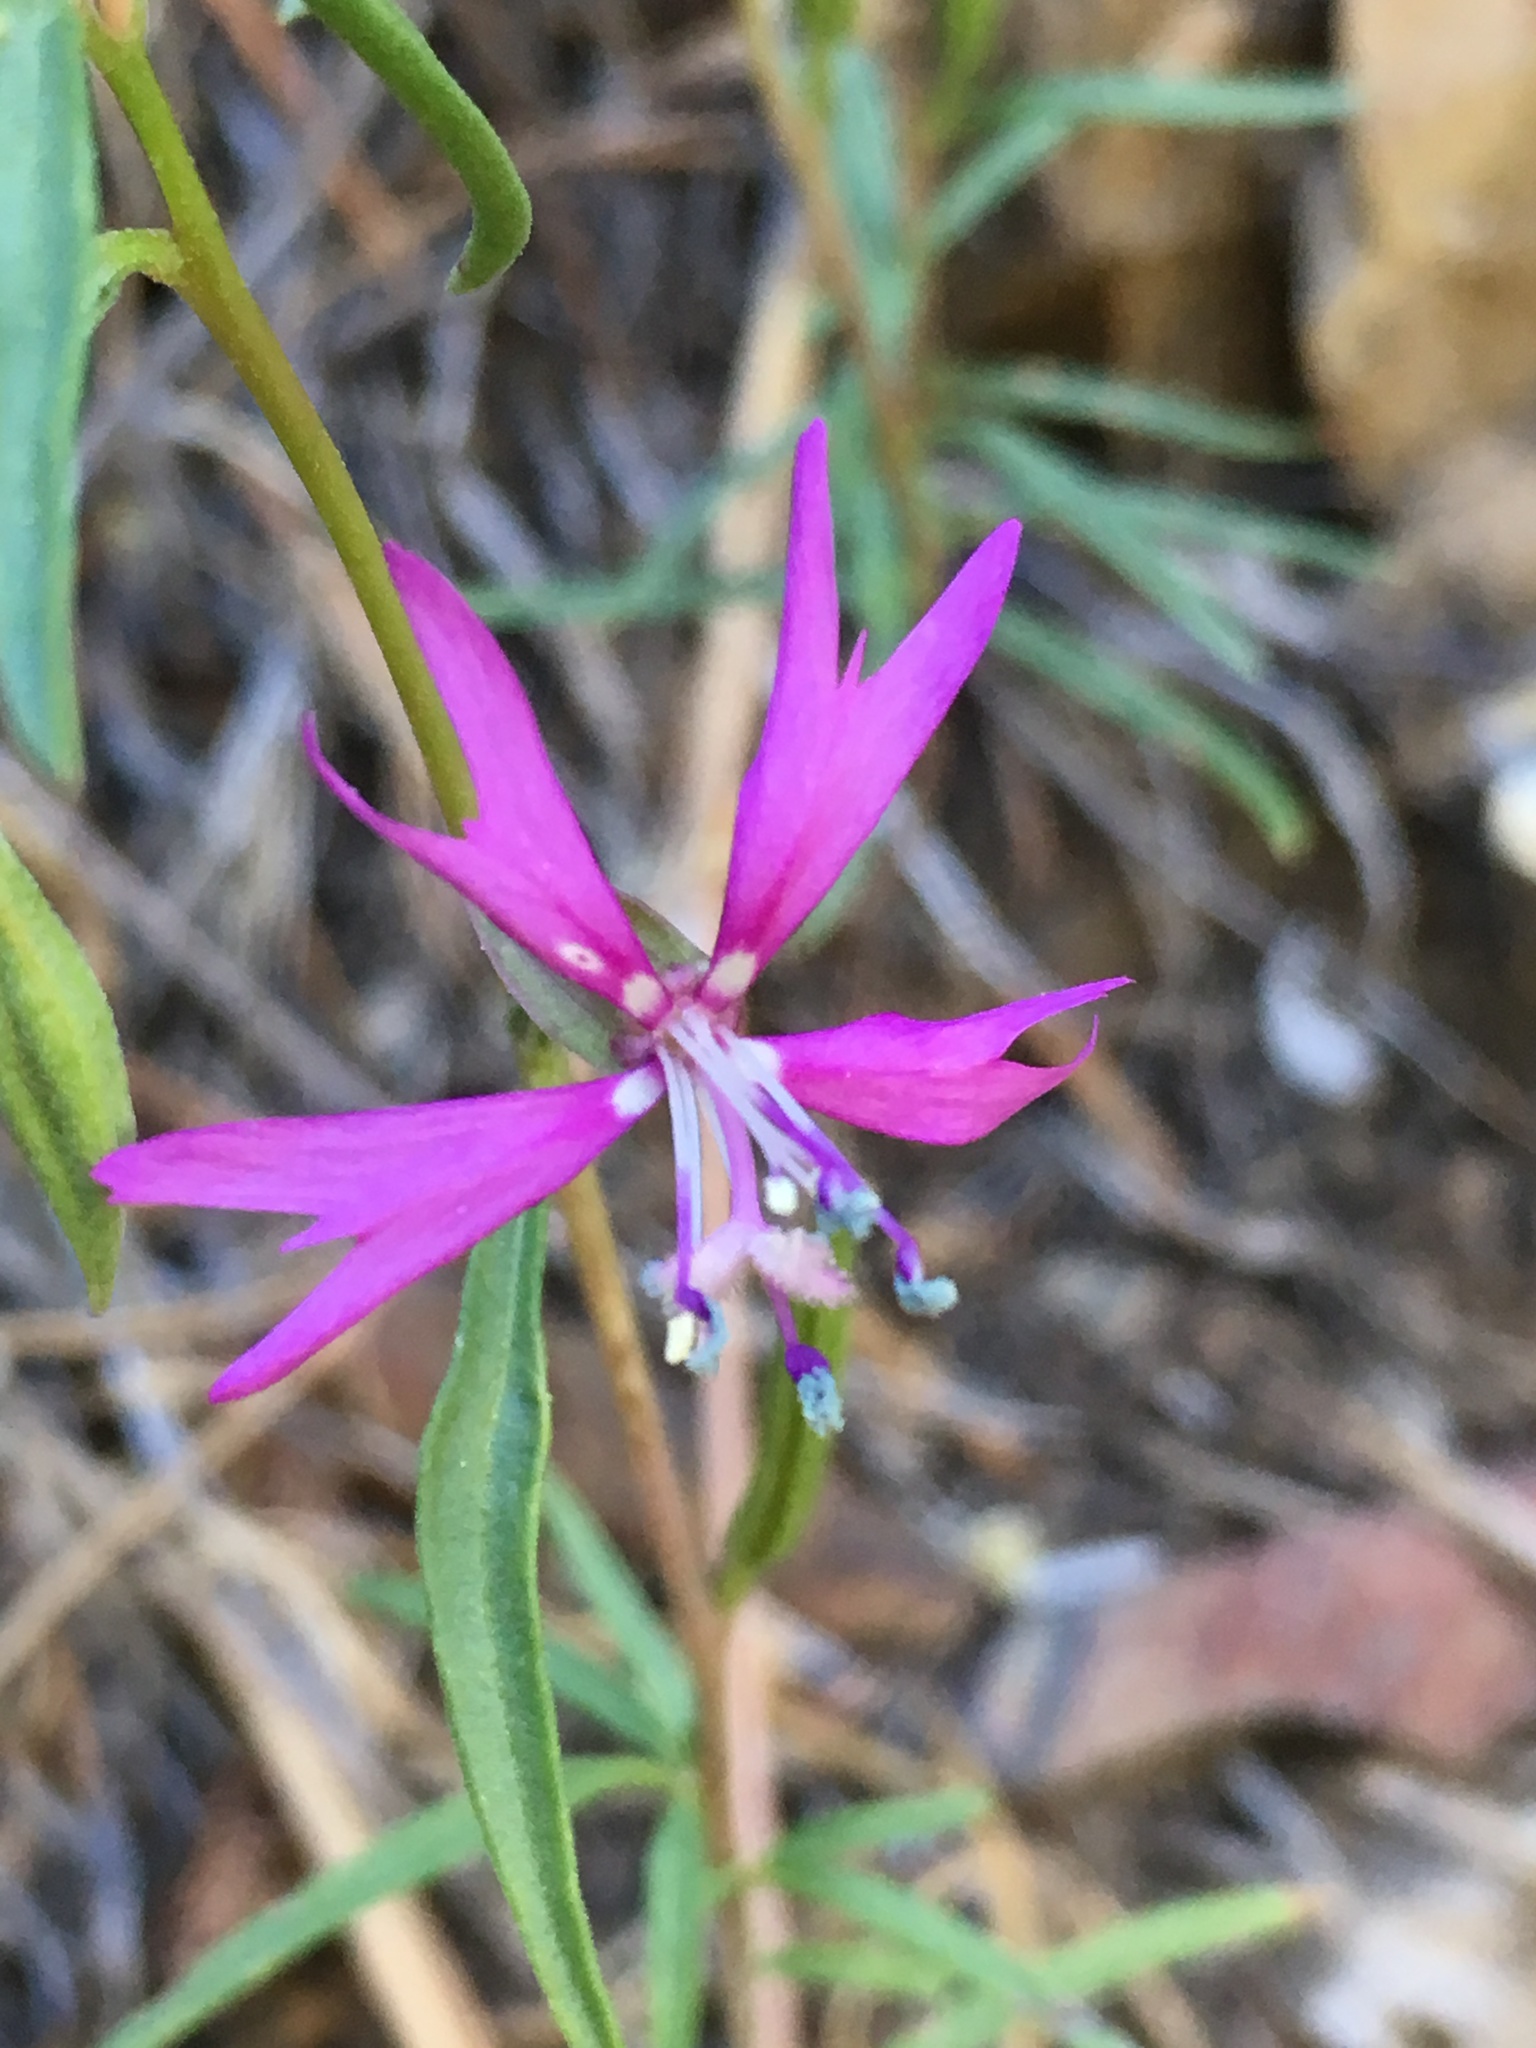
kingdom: Plantae
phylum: Tracheophyta
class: Magnoliopsida
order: Myrtales
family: Onagraceae
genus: Clarkia
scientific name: Clarkia xantiana
